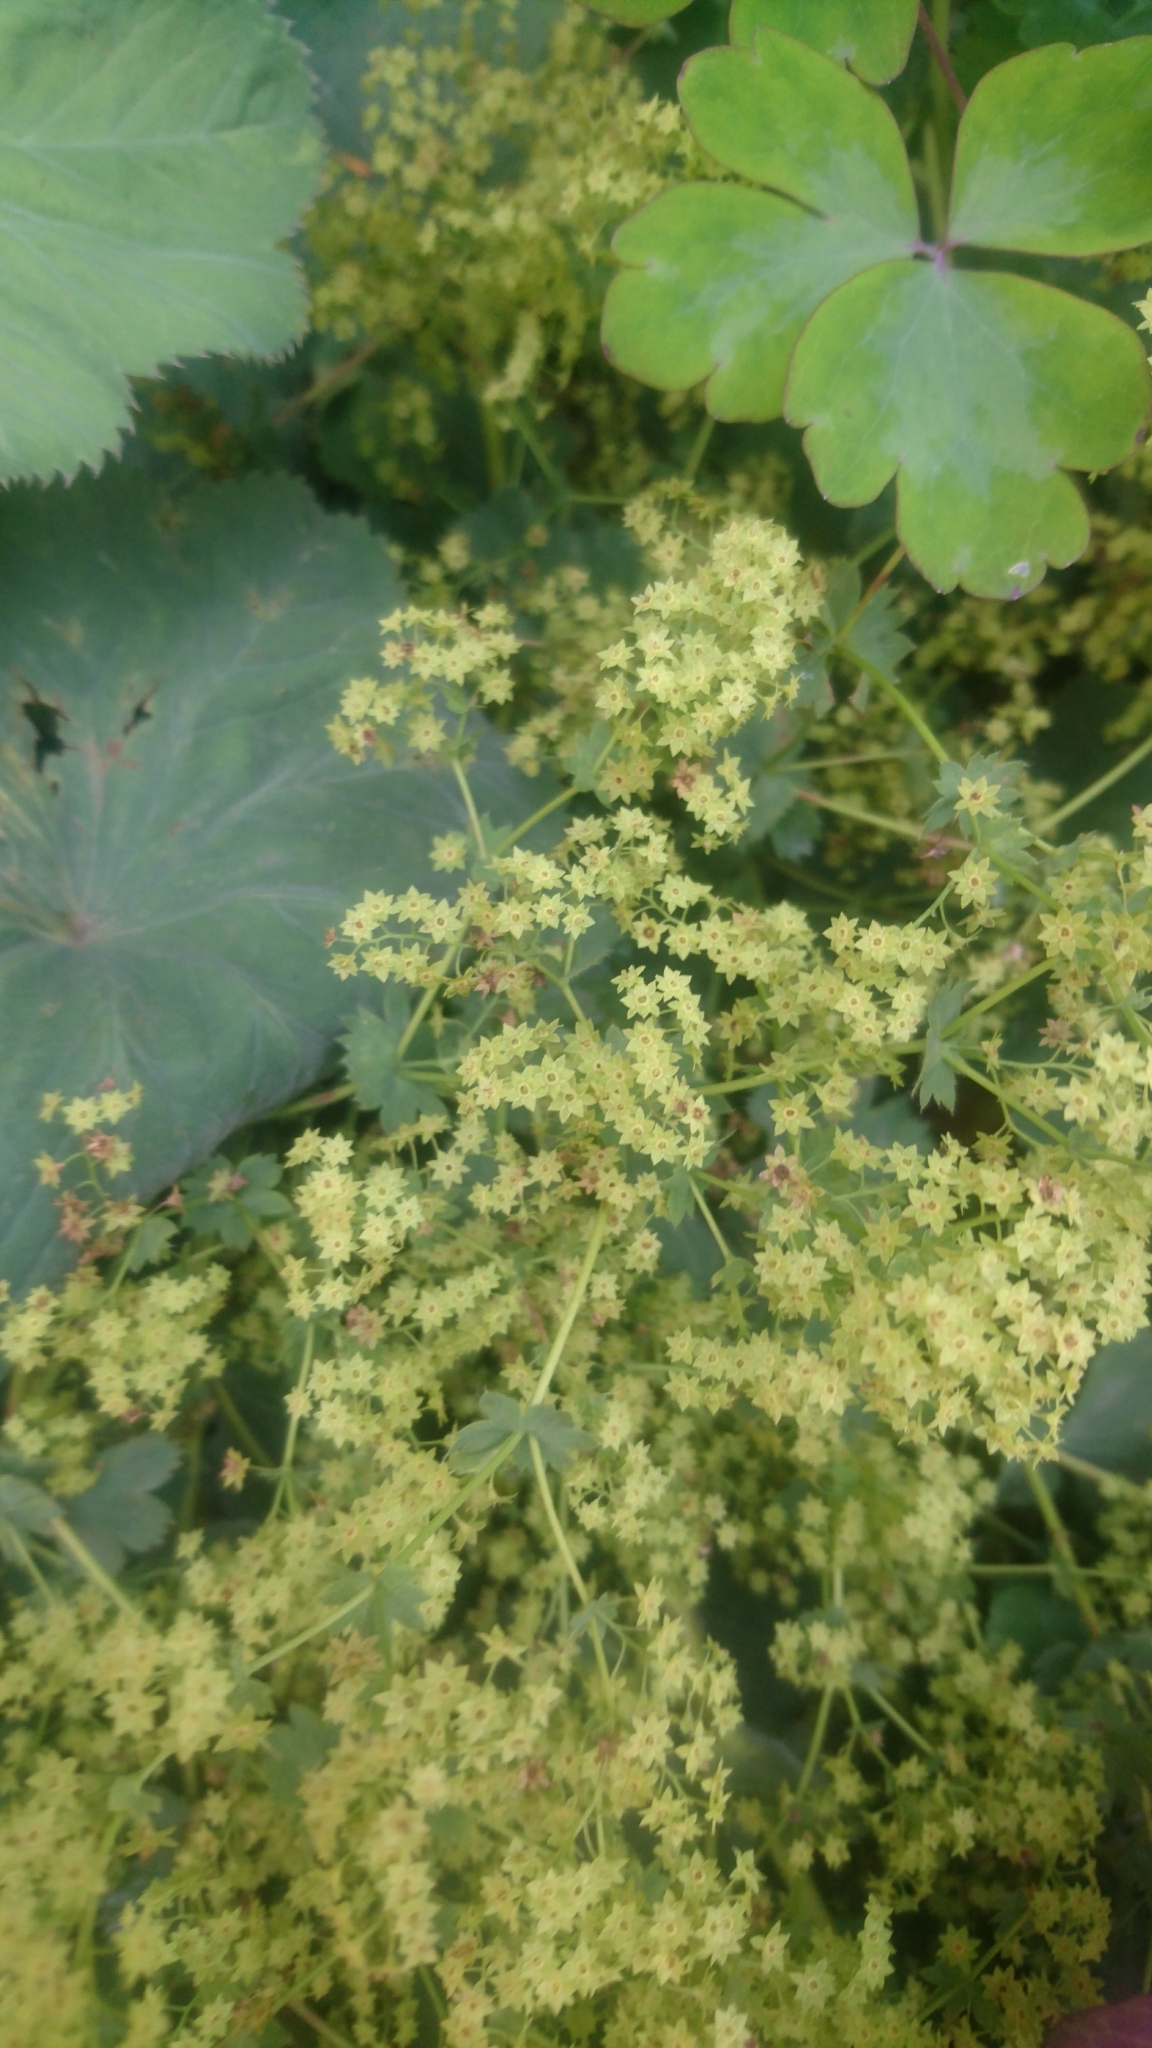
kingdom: Plantae
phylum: Tracheophyta
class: Magnoliopsida
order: Rosales
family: Rosaceae
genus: Alchemilla
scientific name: Alchemilla mollis
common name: Lady's-mantle
